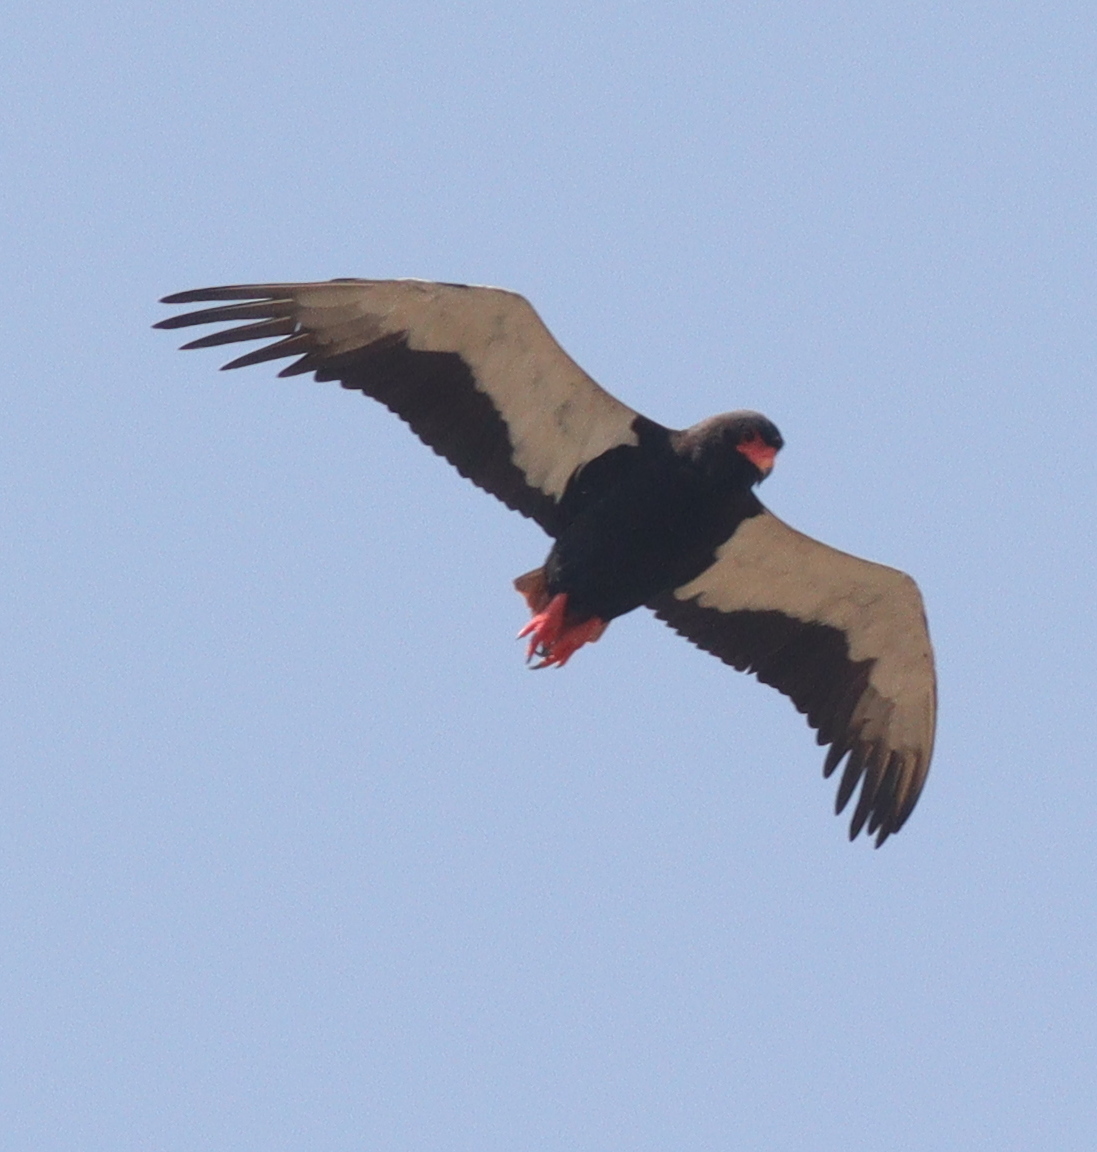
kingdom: Animalia
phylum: Chordata
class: Aves
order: Accipitriformes
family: Accipitridae
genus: Terathopius
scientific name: Terathopius ecaudatus
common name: Bateleur
